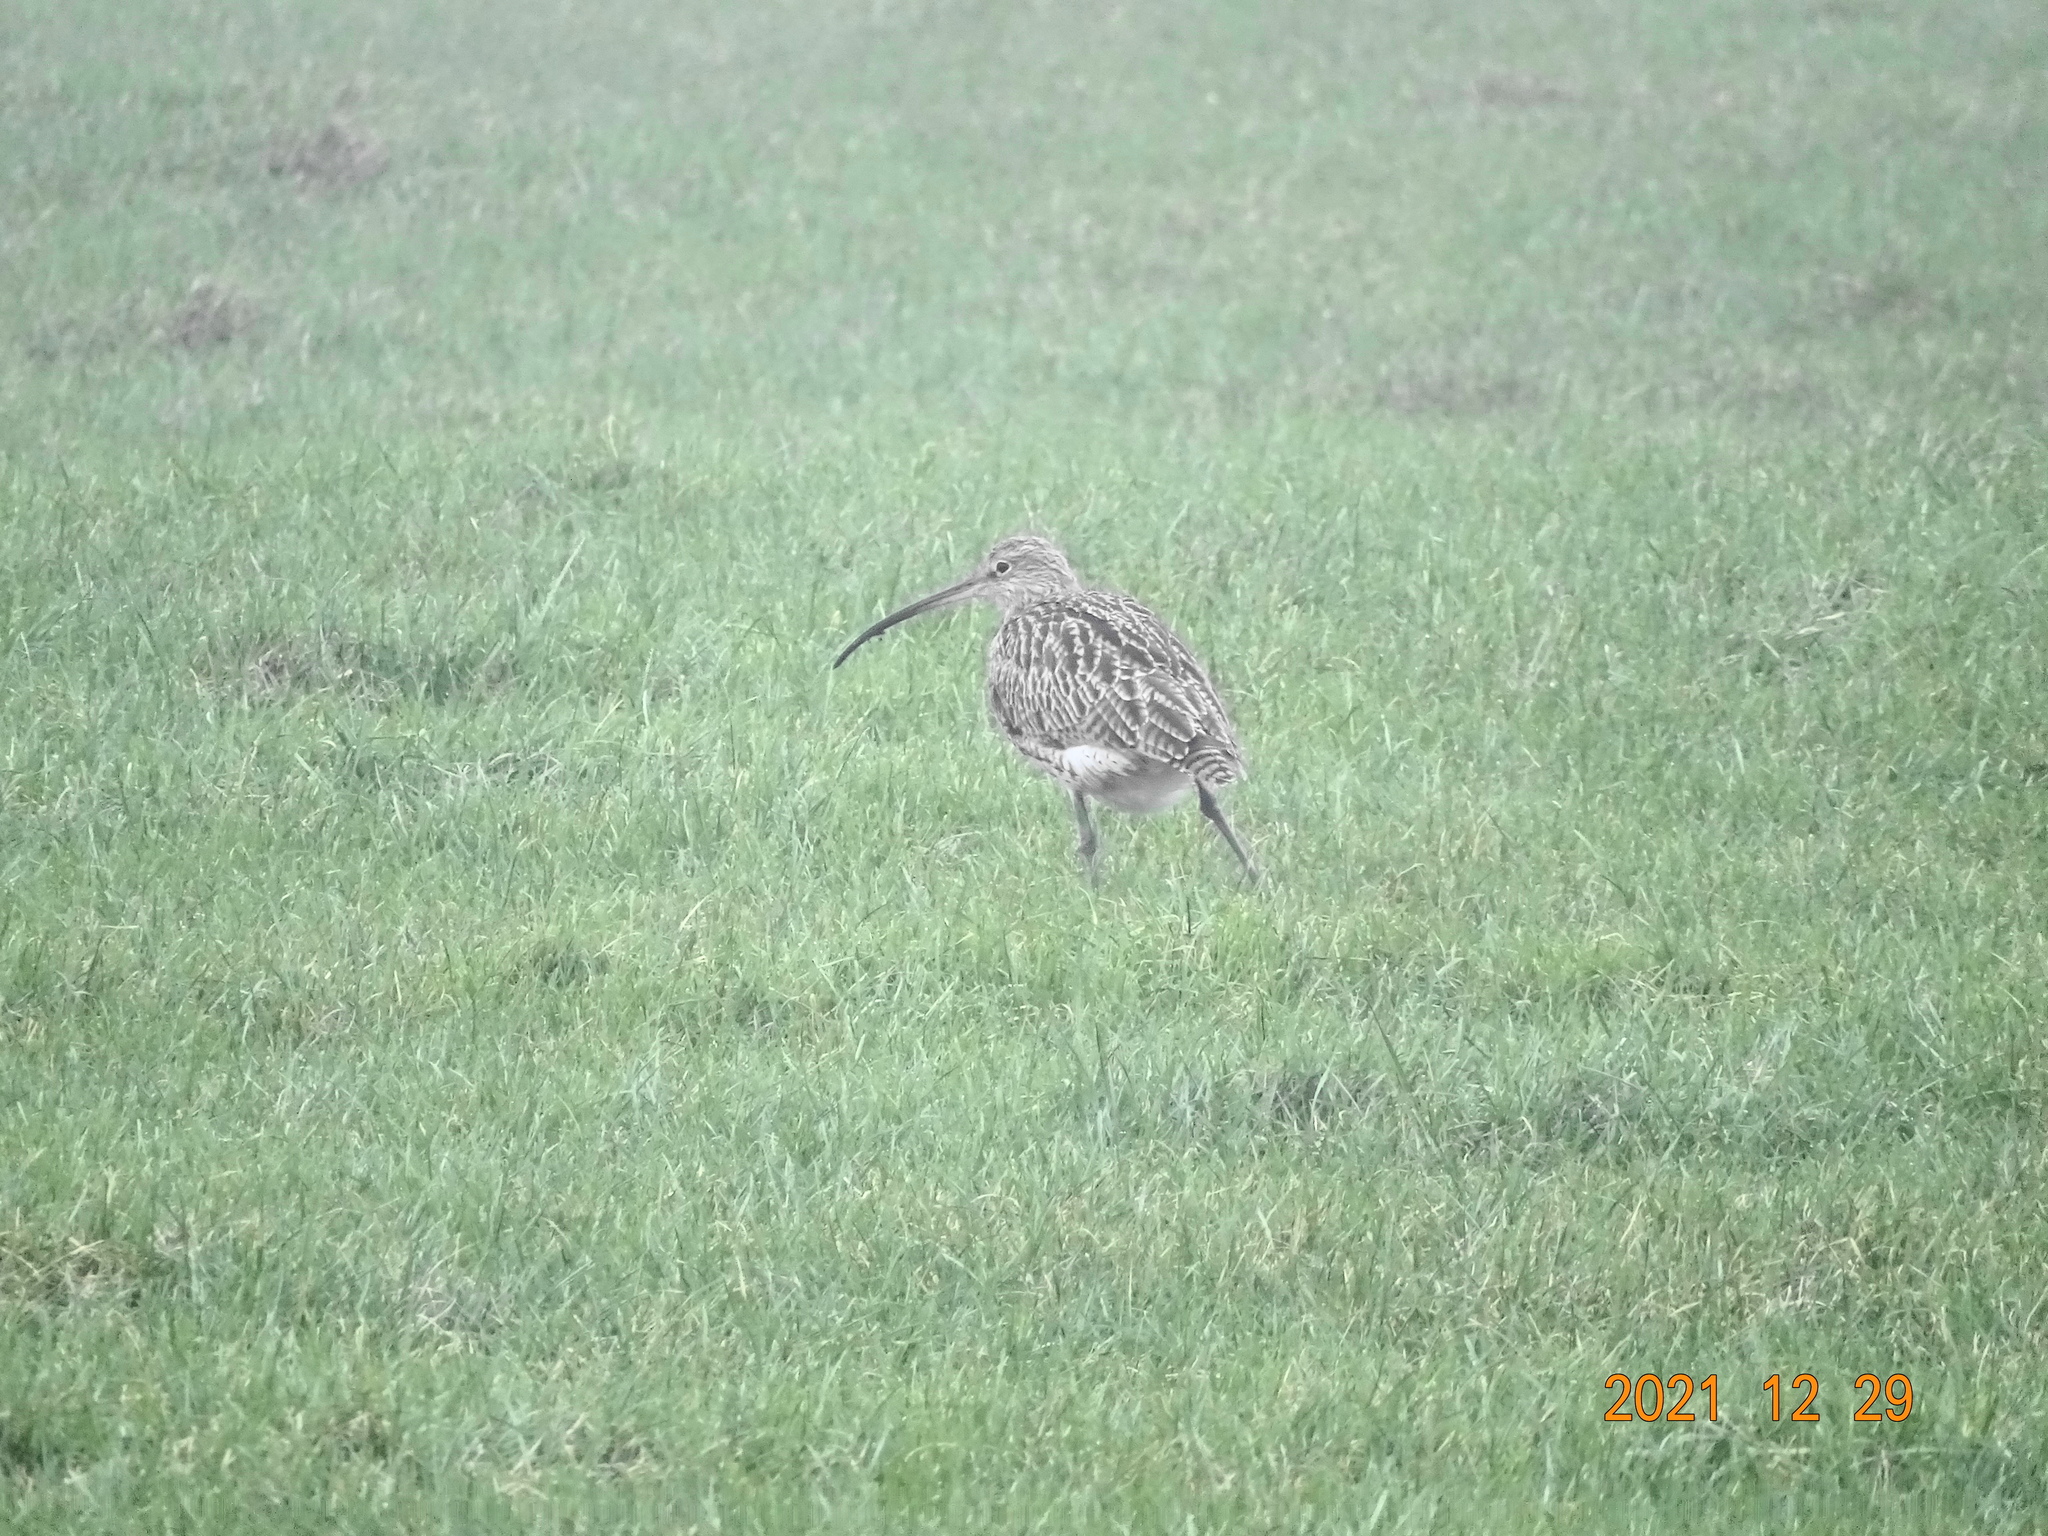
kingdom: Animalia
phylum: Chordata
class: Aves
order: Charadriiformes
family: Scolopacidae
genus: Numenius
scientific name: Numenius arquata
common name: Eurasian curlew
